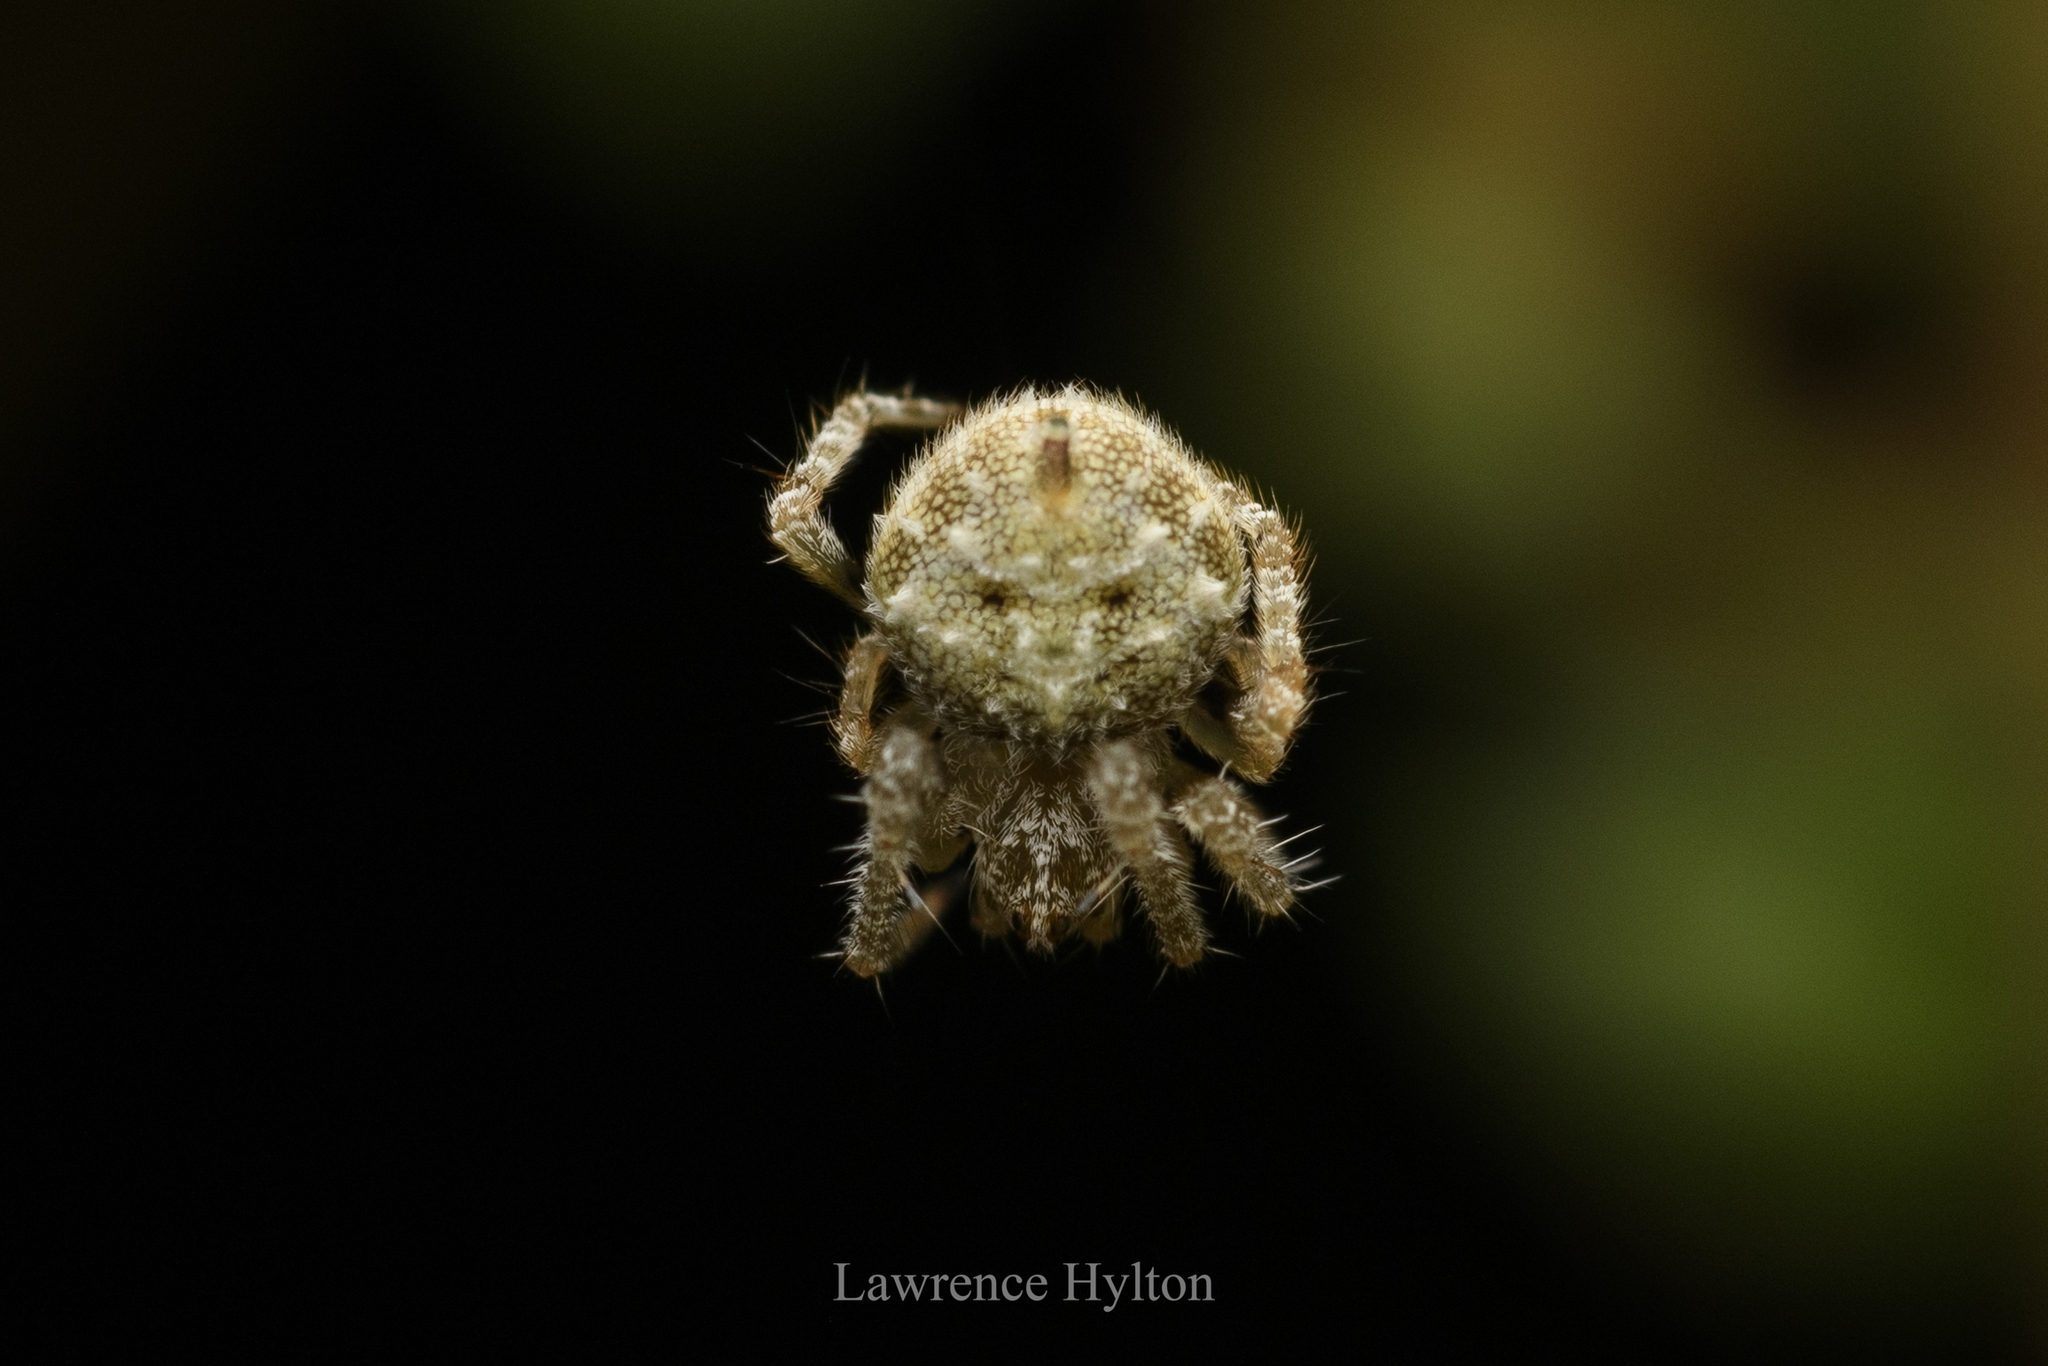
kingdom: Animalia
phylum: Arthropoda
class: Arachnida
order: Araneae
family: Araneidae
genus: Eriovixia
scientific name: Eriovixia laglaizei
